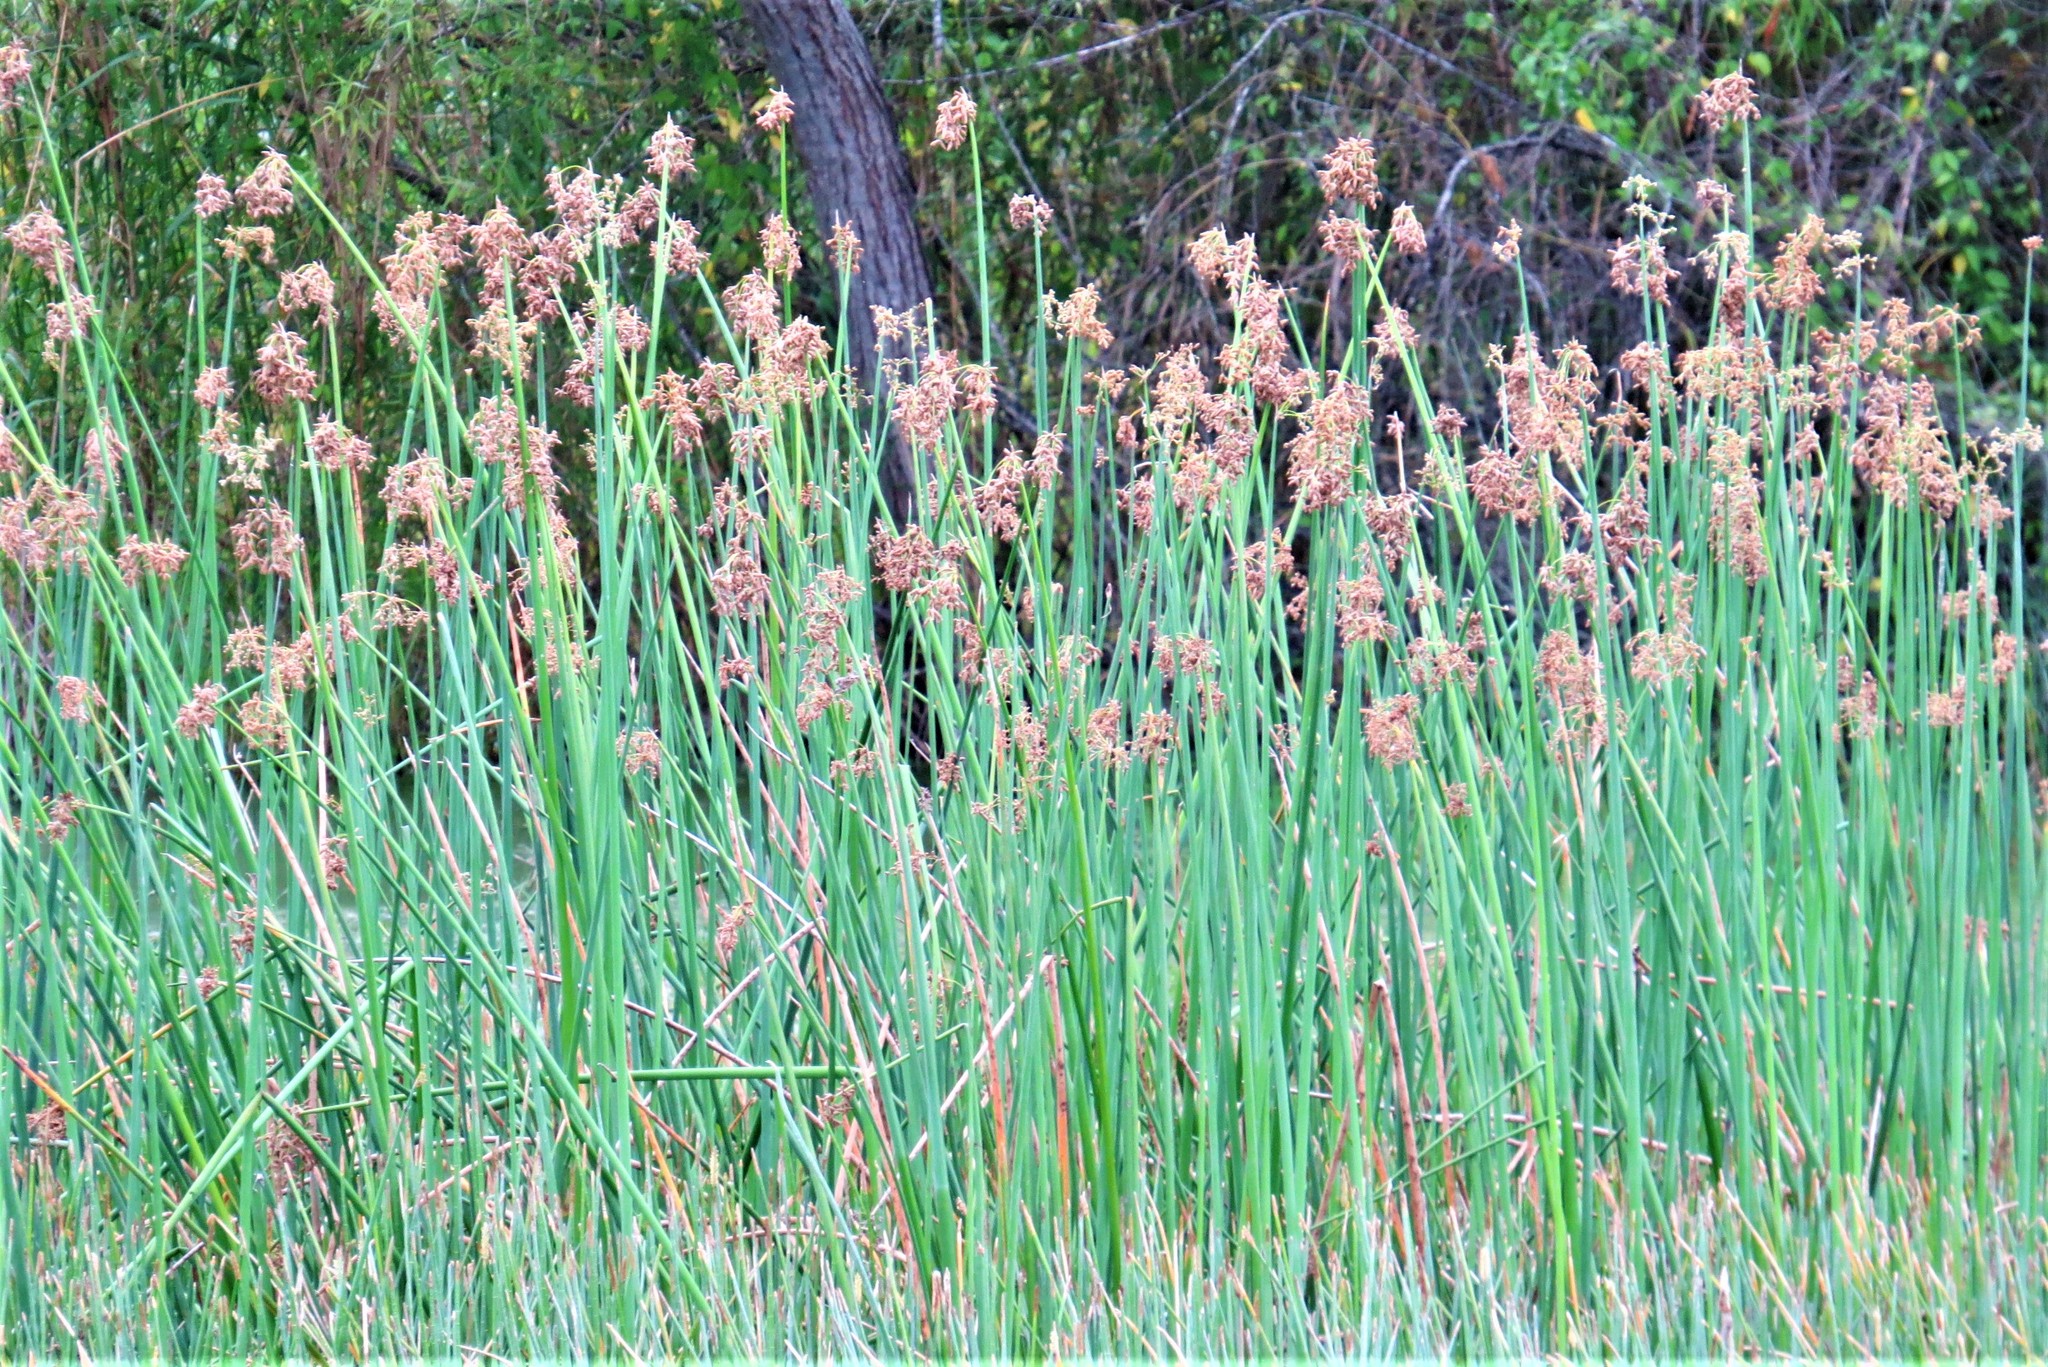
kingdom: Plantae
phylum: Tracheophyta
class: Liliopsida
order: Poales
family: Cyperaceae
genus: Schoenoplectus
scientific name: Schoenoplectus californicus
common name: California bulrush
